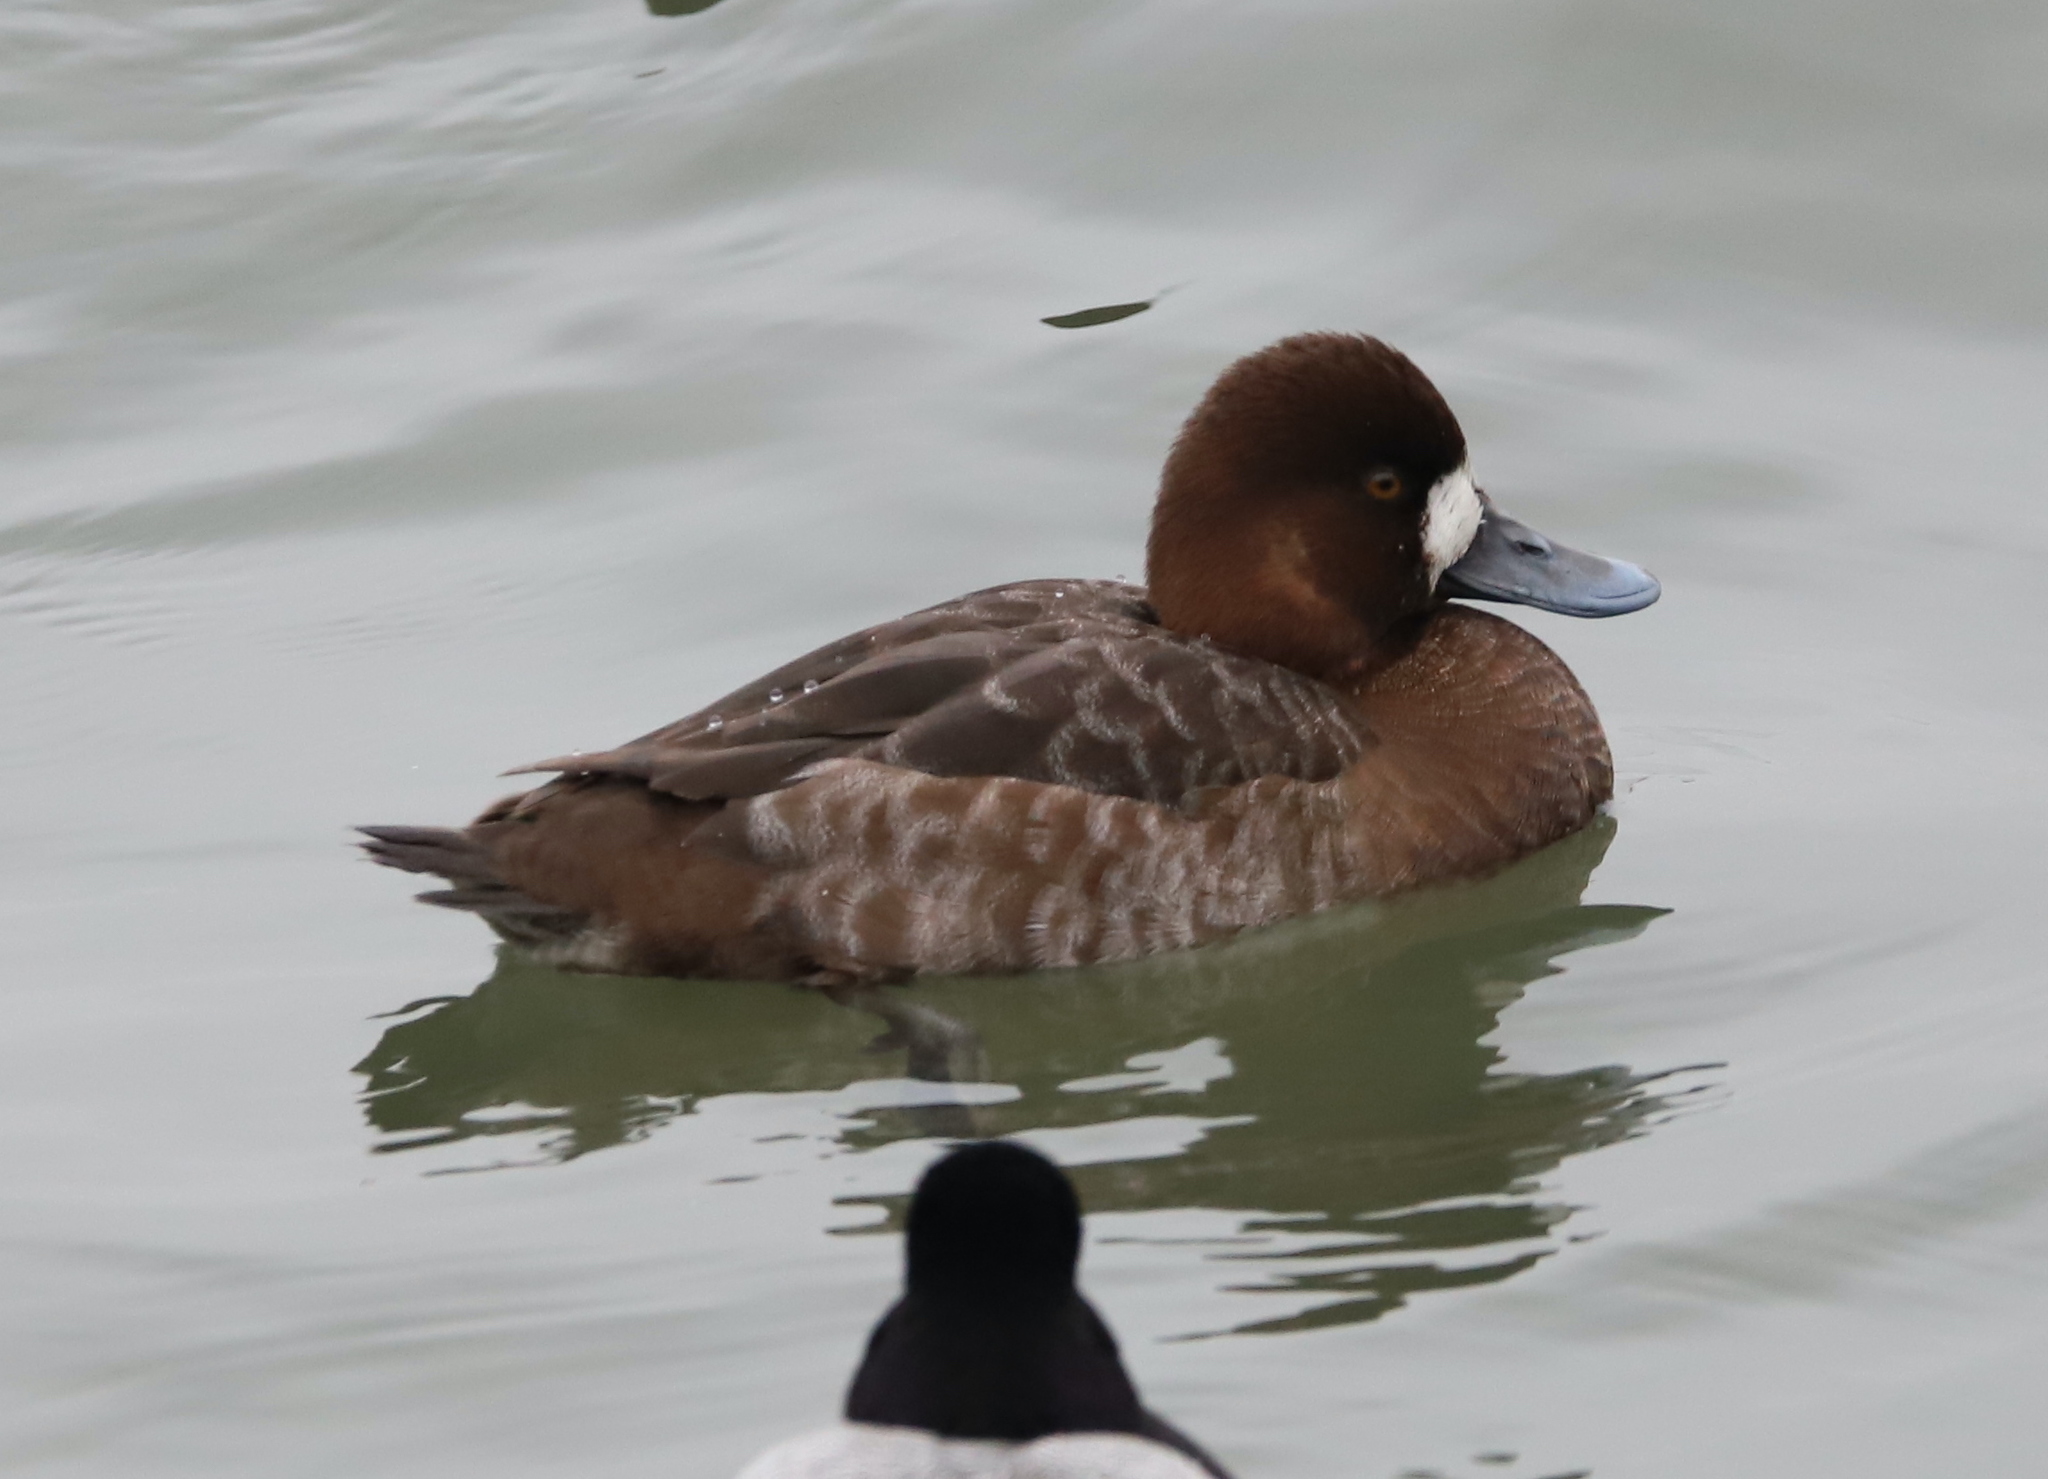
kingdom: Animalia
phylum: Chordata
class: Aves
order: Anseriformes
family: Anatidae
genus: Aythya
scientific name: Aythya marila
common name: Greater scaup
